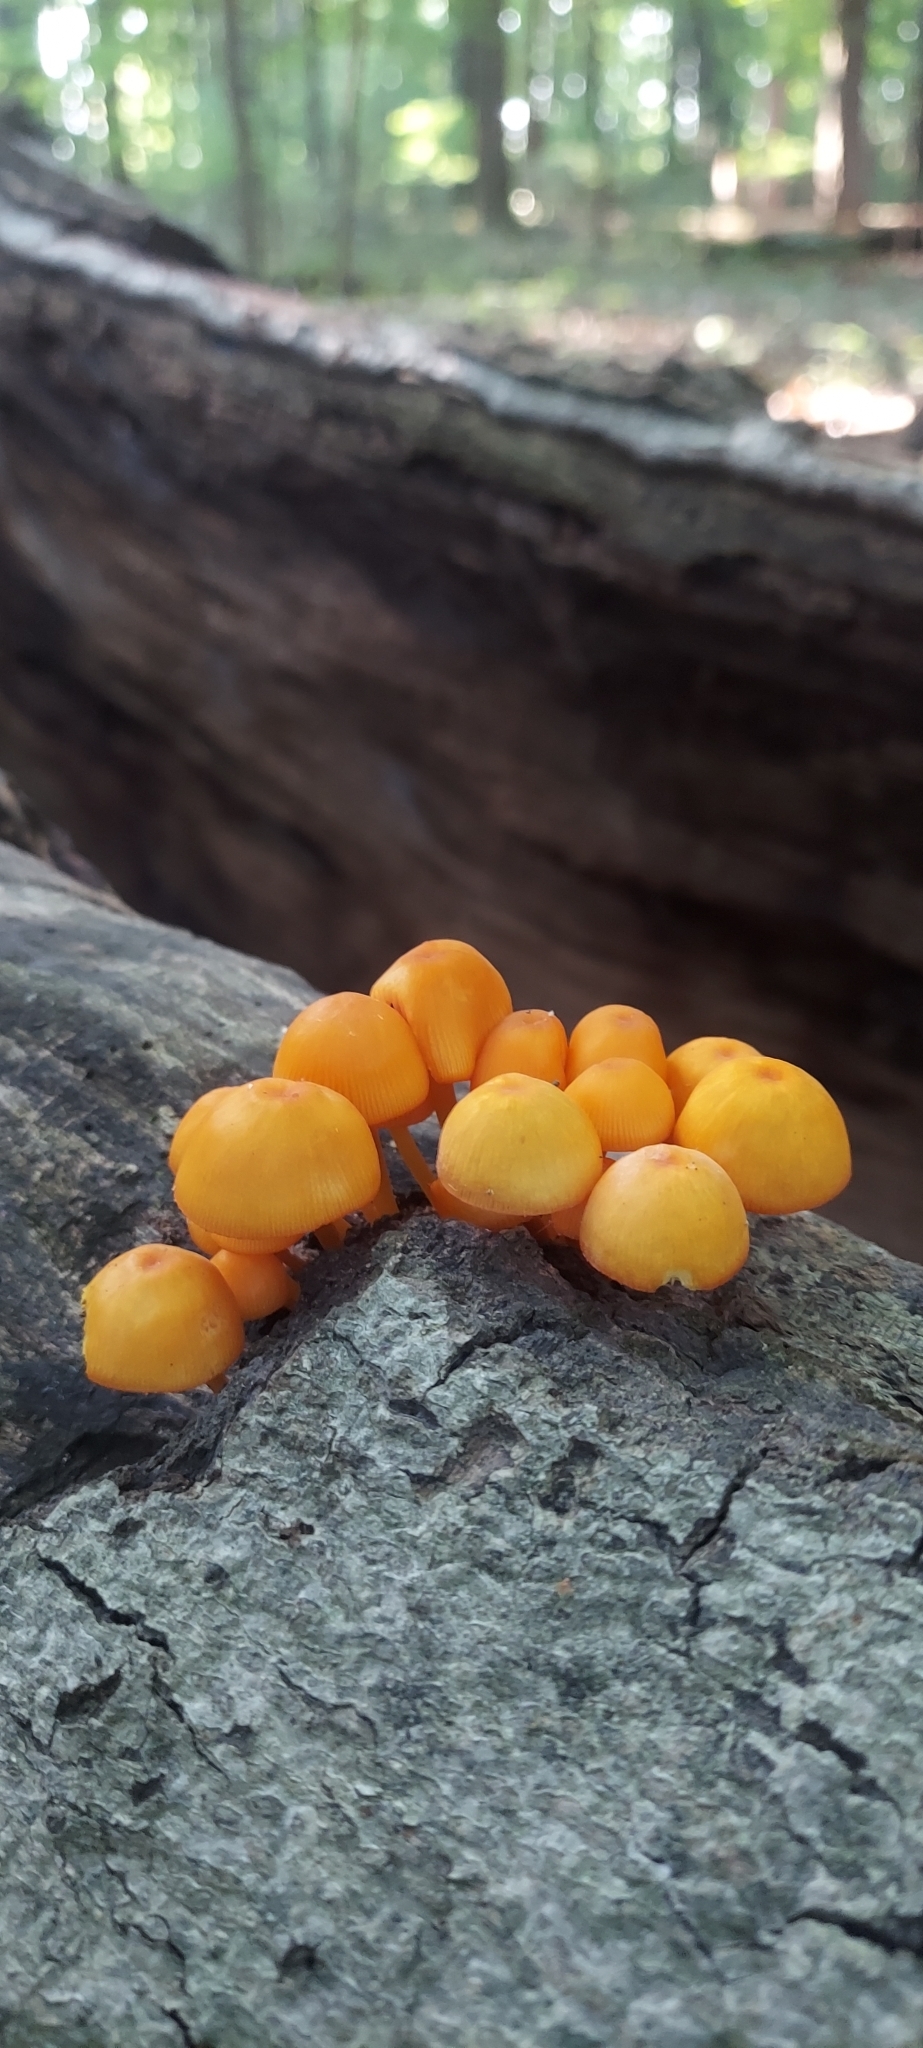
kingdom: Fungi
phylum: Basidiomycota
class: Agaricomycetes
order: Agaricales
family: Mycenaceae
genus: Mycena
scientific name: Mycena leaiana
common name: Orange mycena
